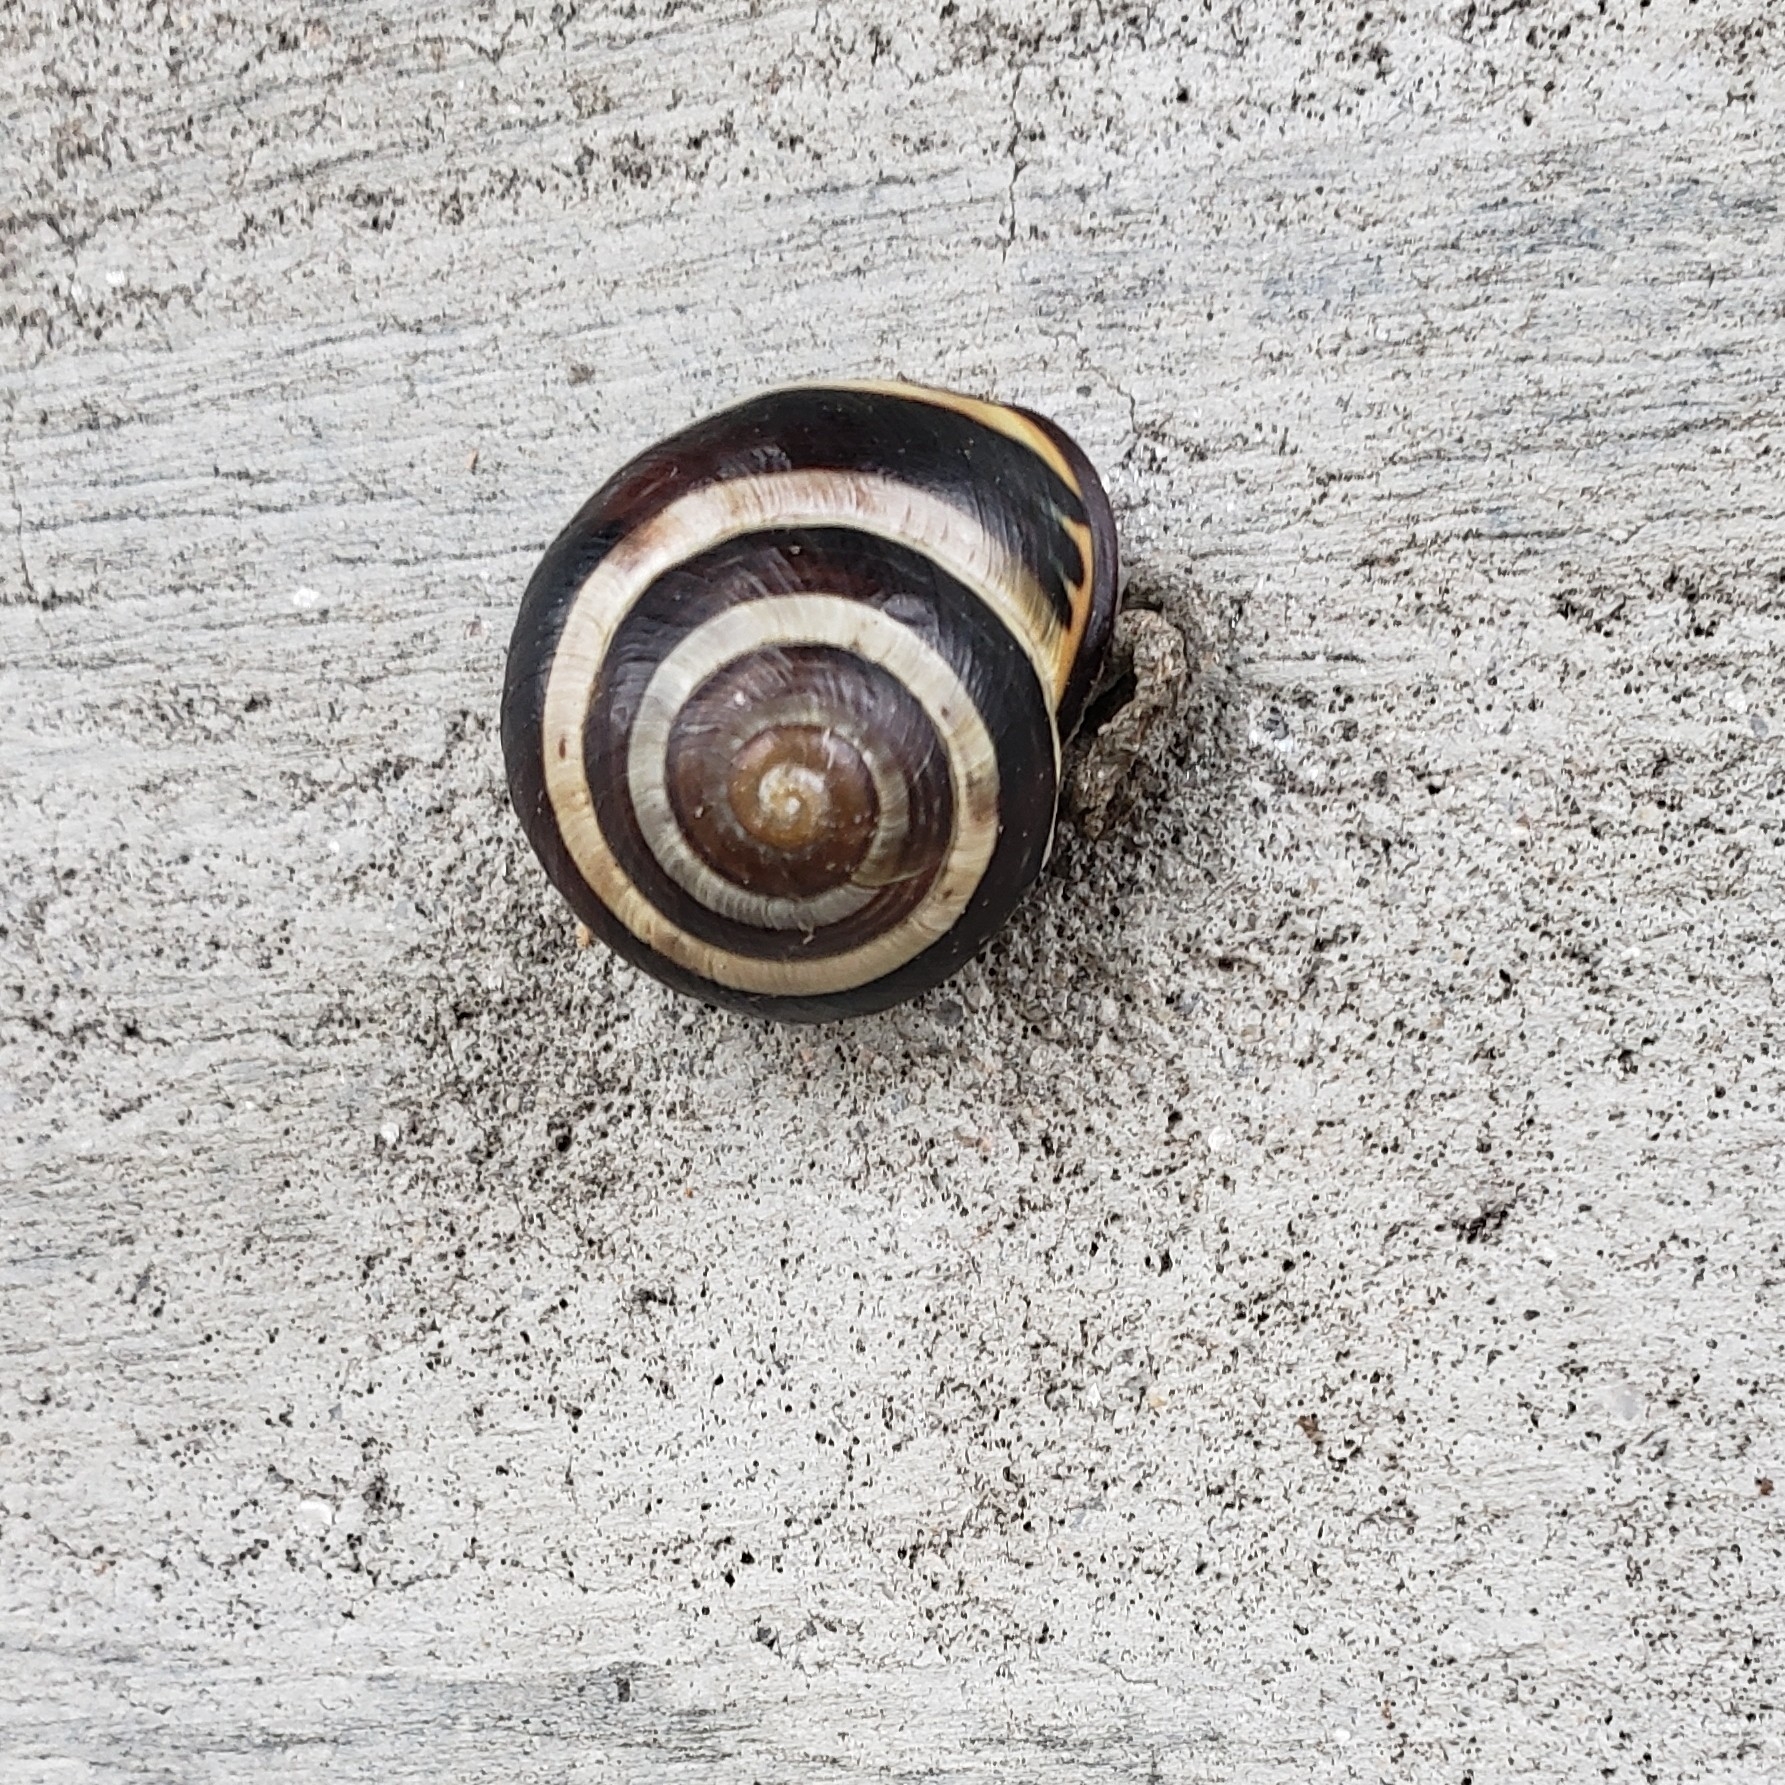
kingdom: Animalia
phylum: Mollusca
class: Gastropoda
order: Stylommatophora
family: Helicidae
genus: Cepaea
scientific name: Cepaea nemoralis
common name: Grovesnail
